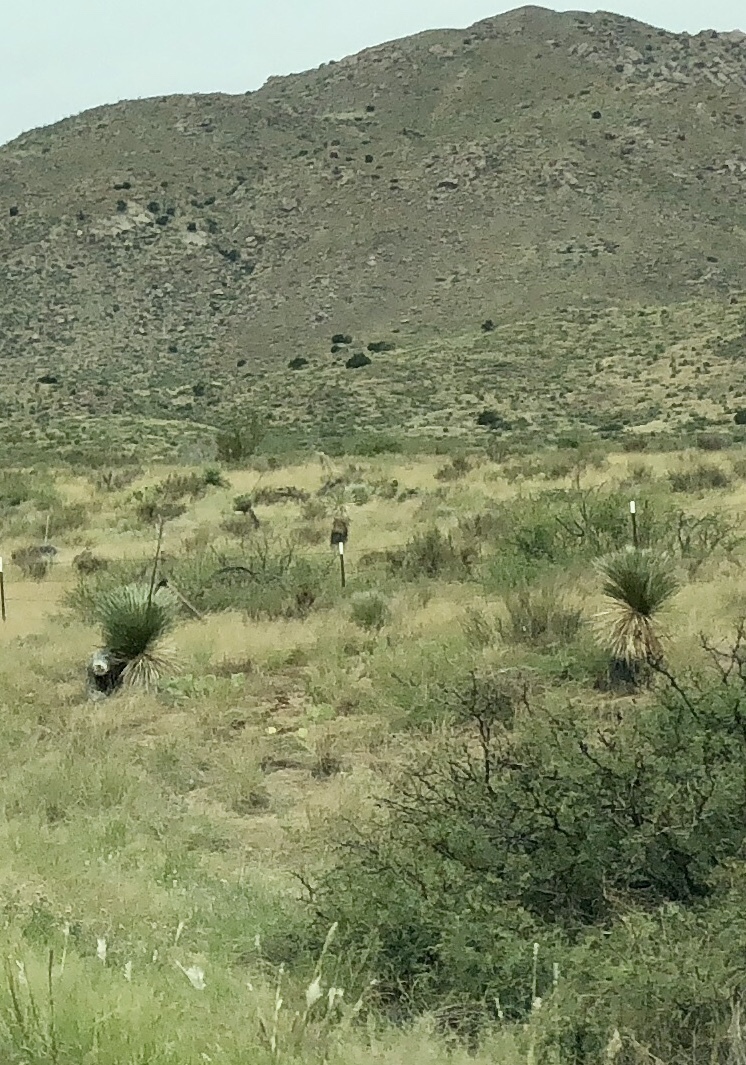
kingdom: Plantae
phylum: Tracheophyta
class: Liliopsida
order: Asparagales
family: Asparagaceae
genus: Yucca
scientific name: Yucca elata
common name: Palmella
